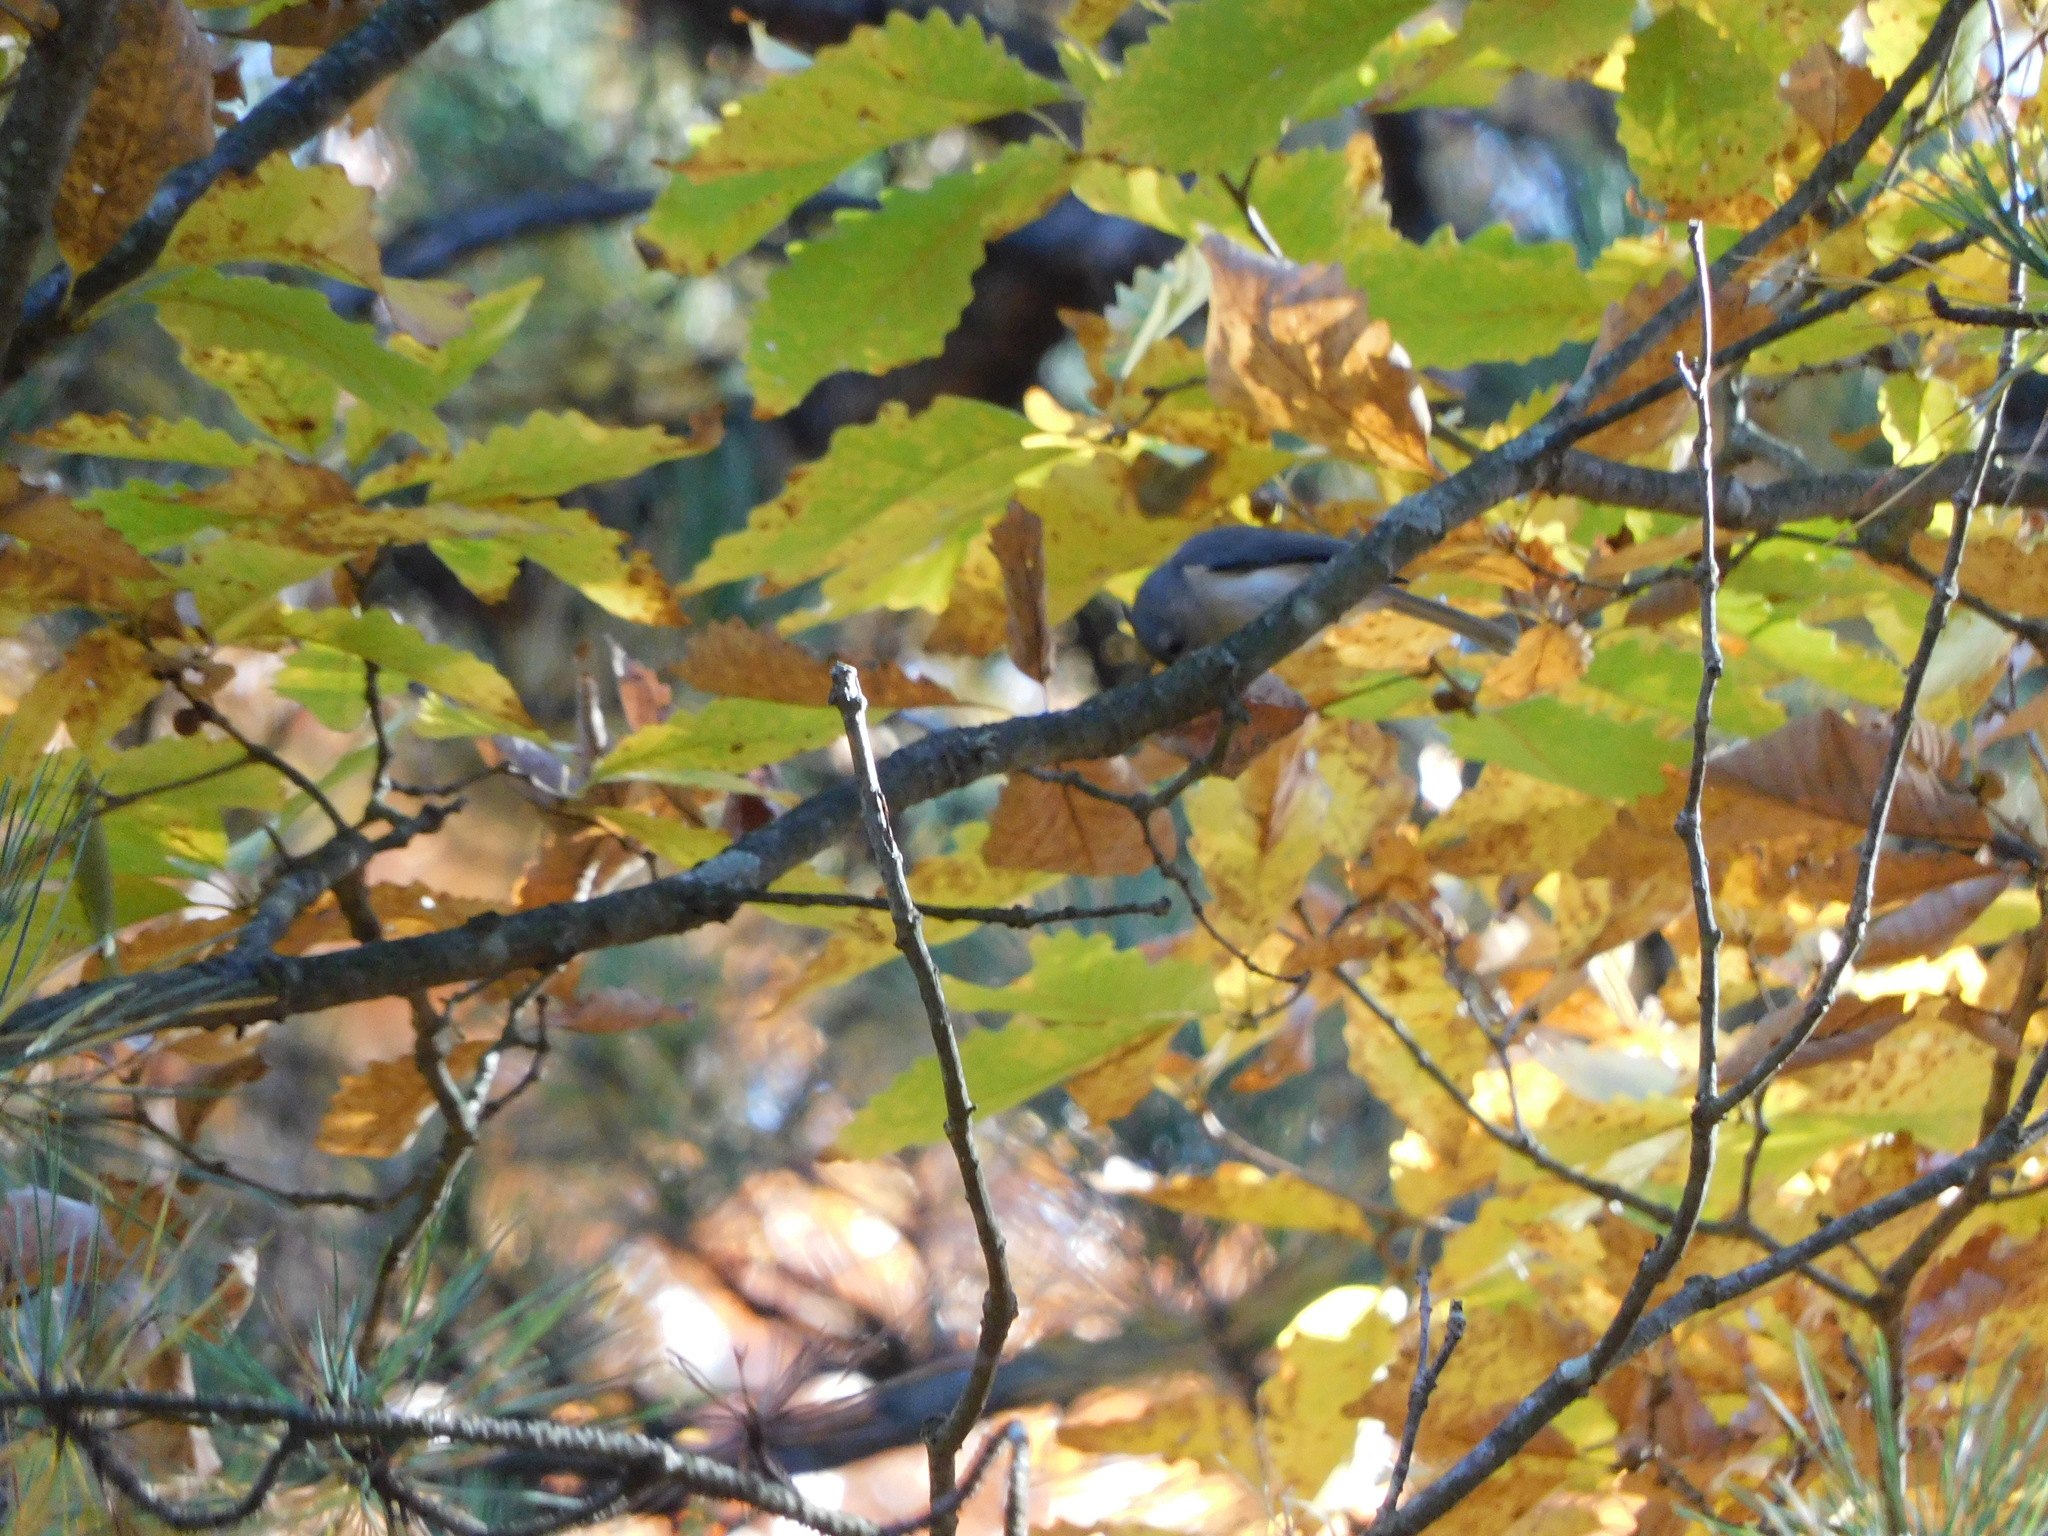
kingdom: Animalia
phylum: Chordata
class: Aves
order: Passeriformes
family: Paridae
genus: Baeolophus
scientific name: Baeolophus bicolor
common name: Tufted titmouse
